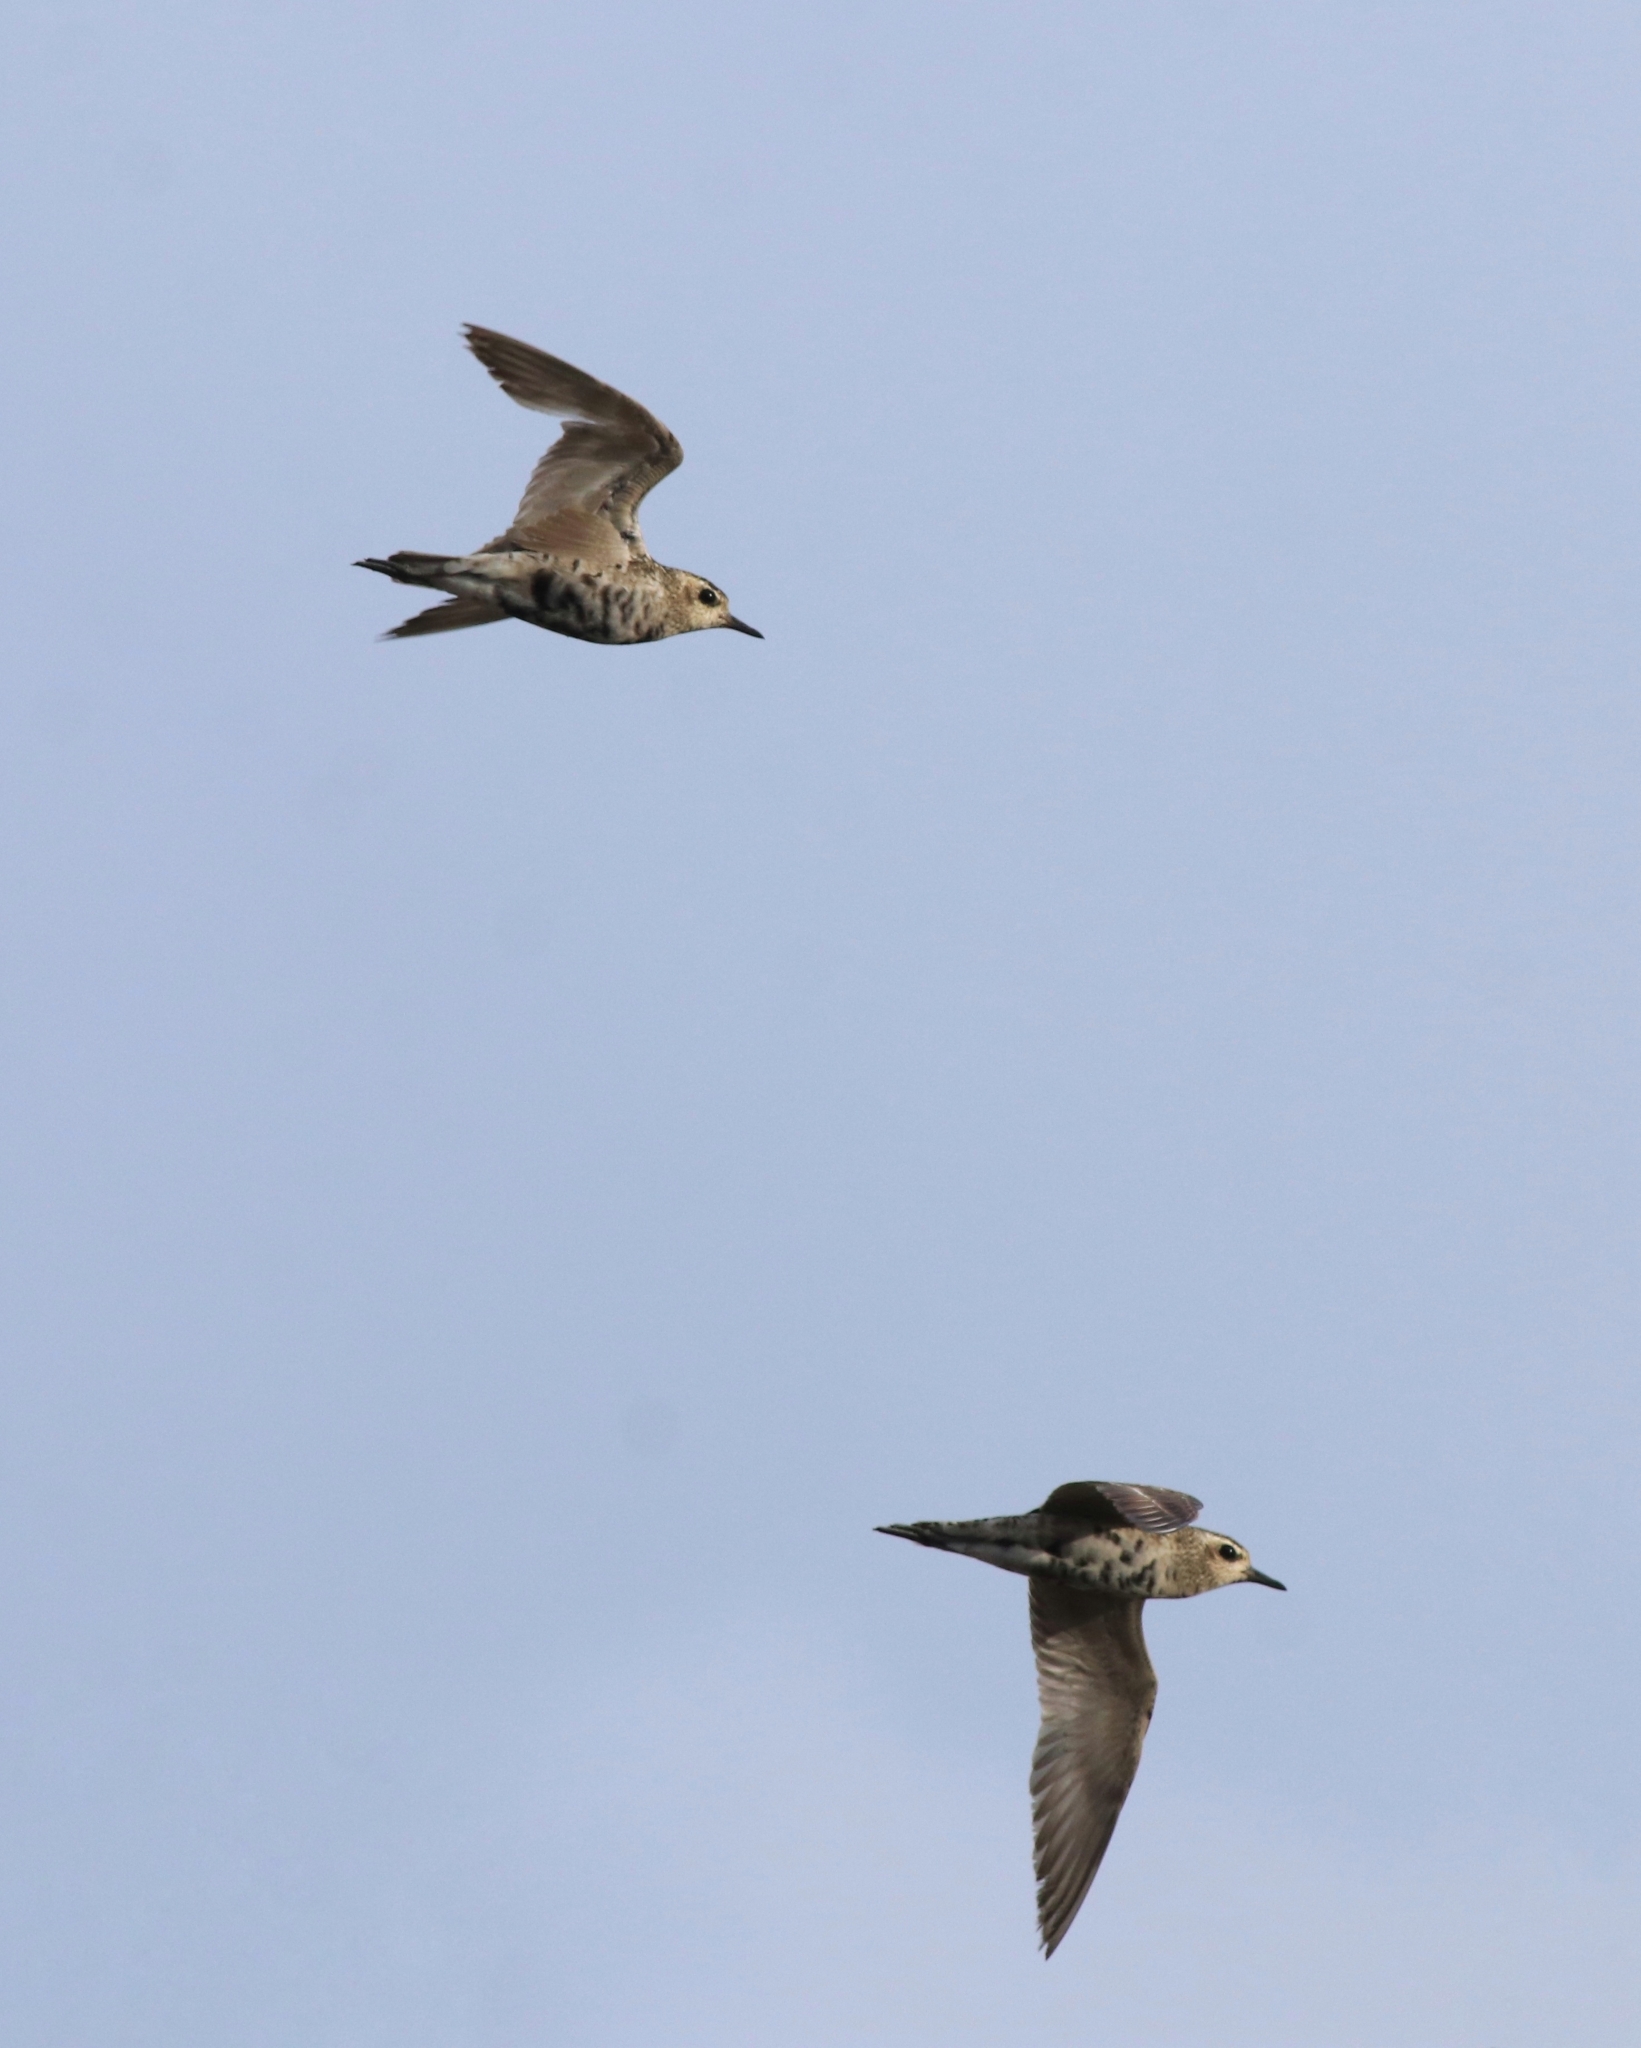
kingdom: Animalia
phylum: Chordata
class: Aves
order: Charadriiformes
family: Charadriidae
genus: Pluvialis
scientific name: Pluvialis fulva
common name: Pacific golden plover
